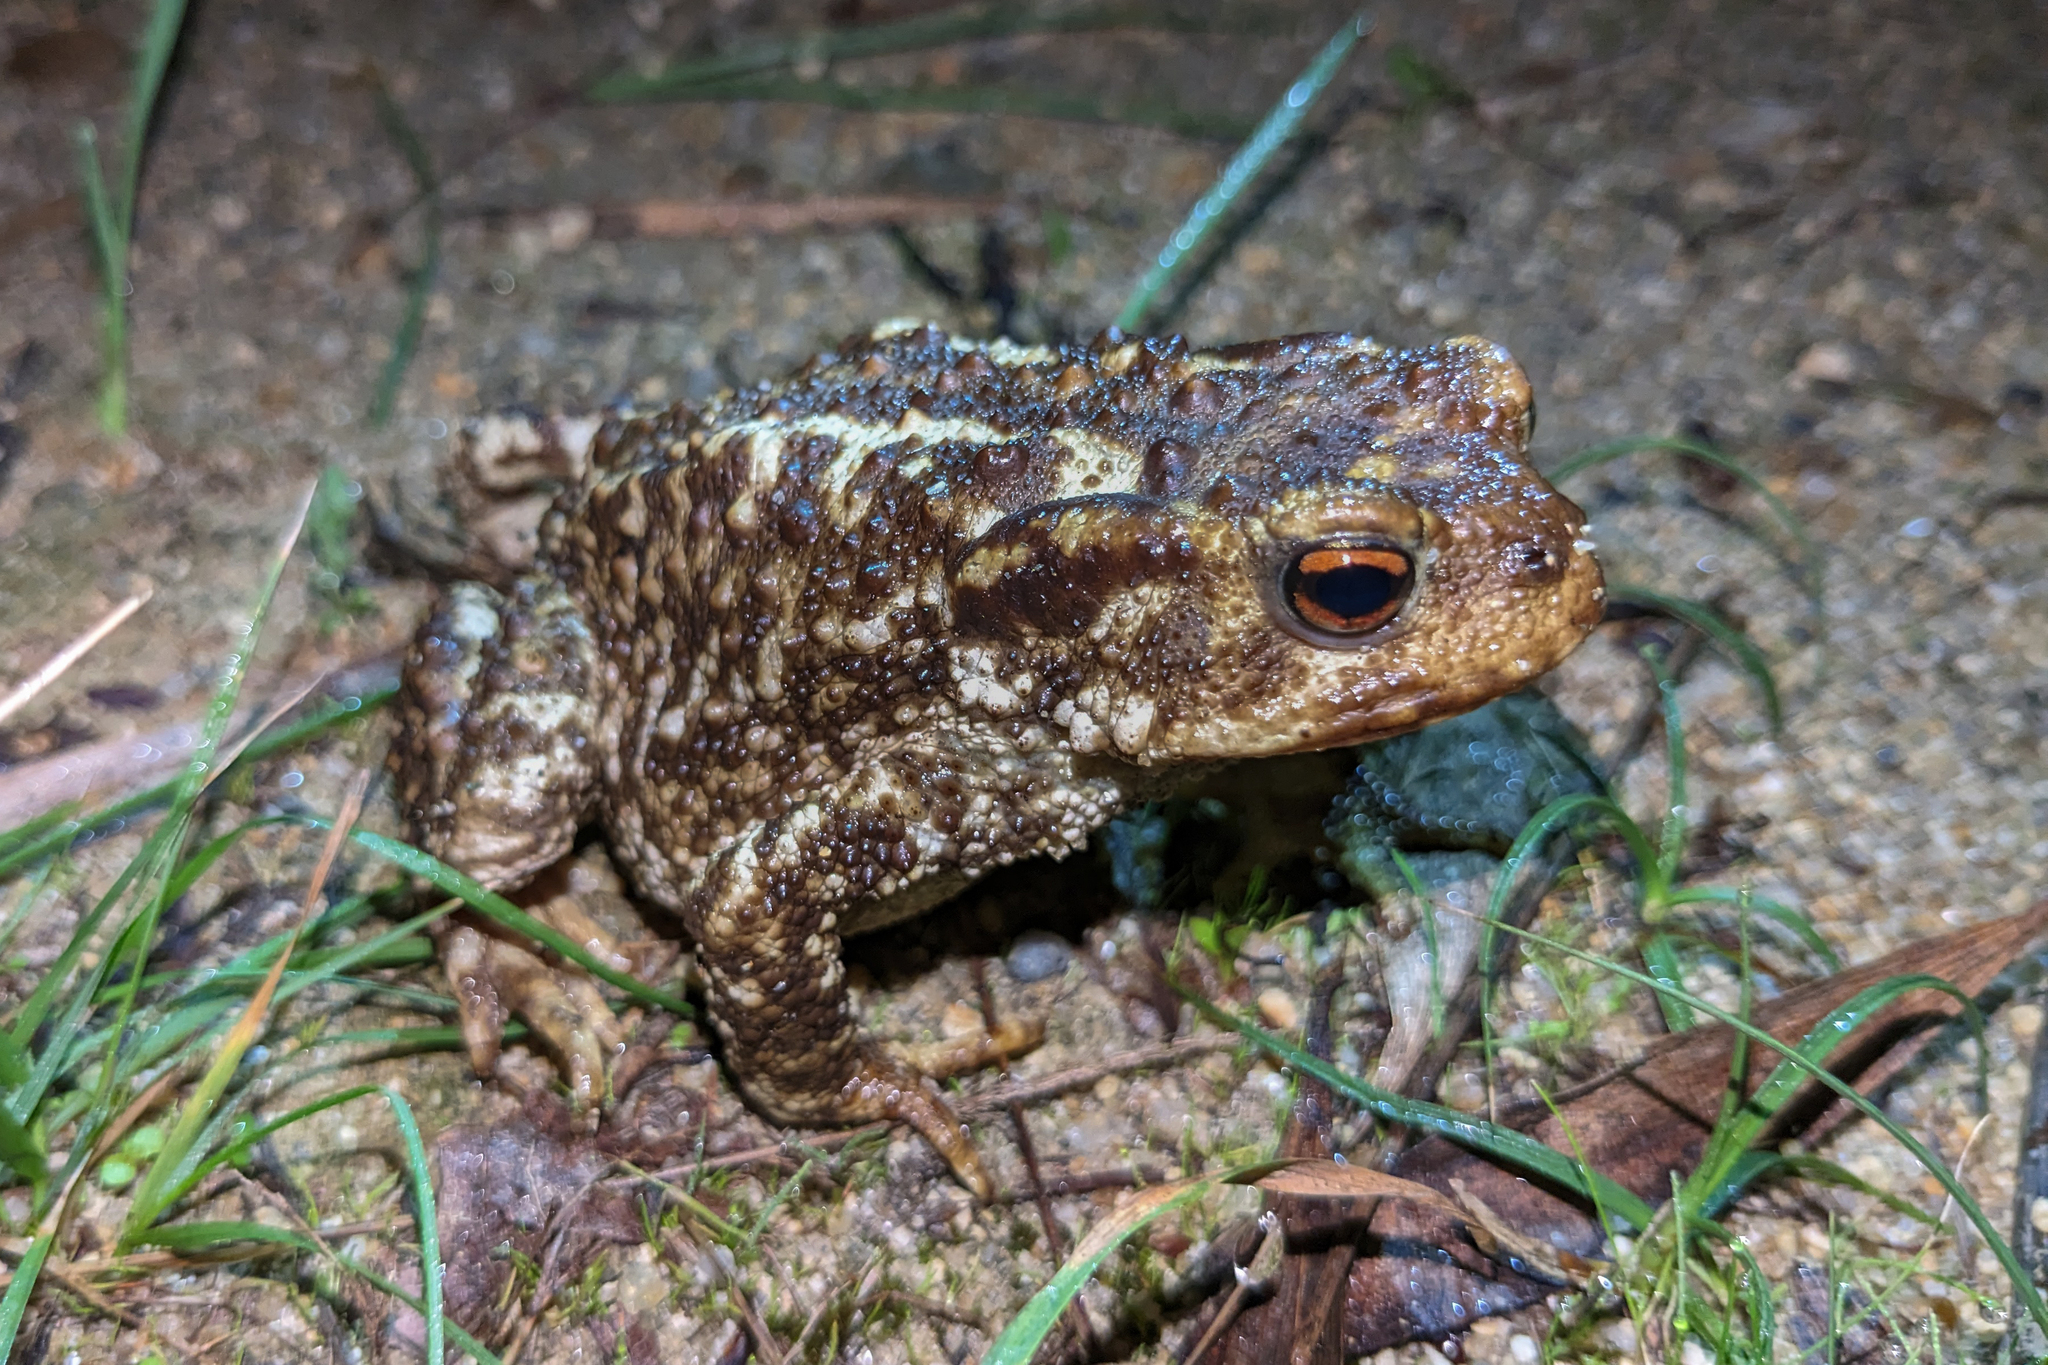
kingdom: Animalia
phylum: Chordata
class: Amphibia
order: Anura
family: Bufonidae
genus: Bufo
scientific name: Bufo spinosus
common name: Western common toad
